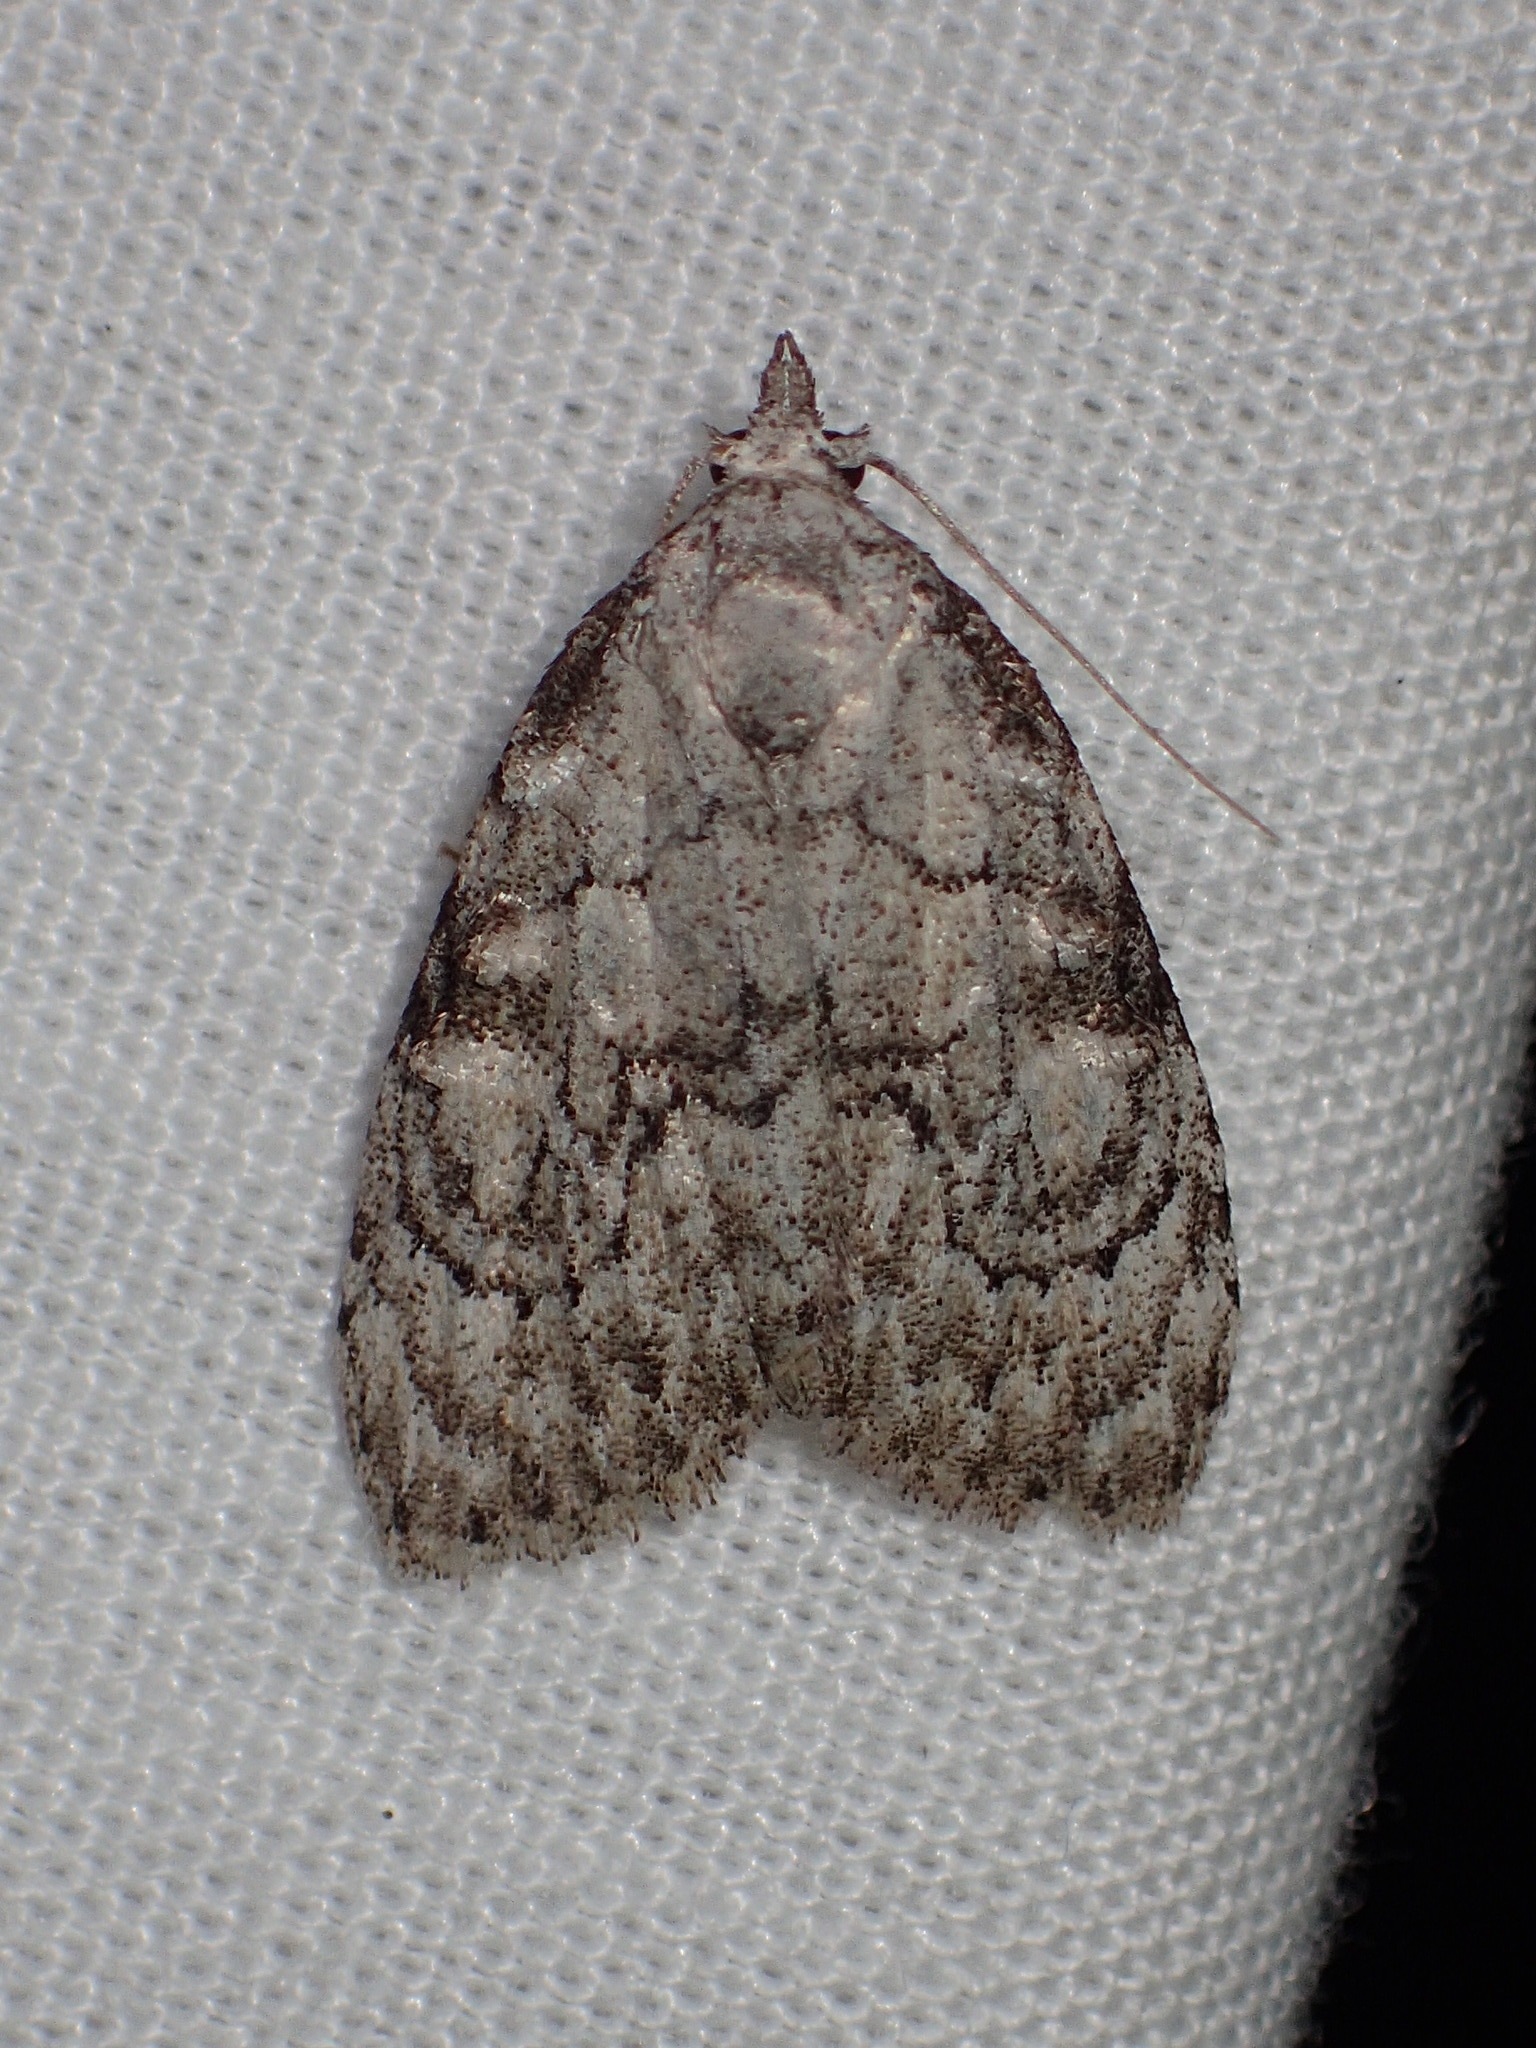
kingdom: Animalia
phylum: Arthropoda
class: Insecta
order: Lepidoptera
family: Nolidae
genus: Meganola
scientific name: Meganola minuscula
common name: Confused meganola moth
